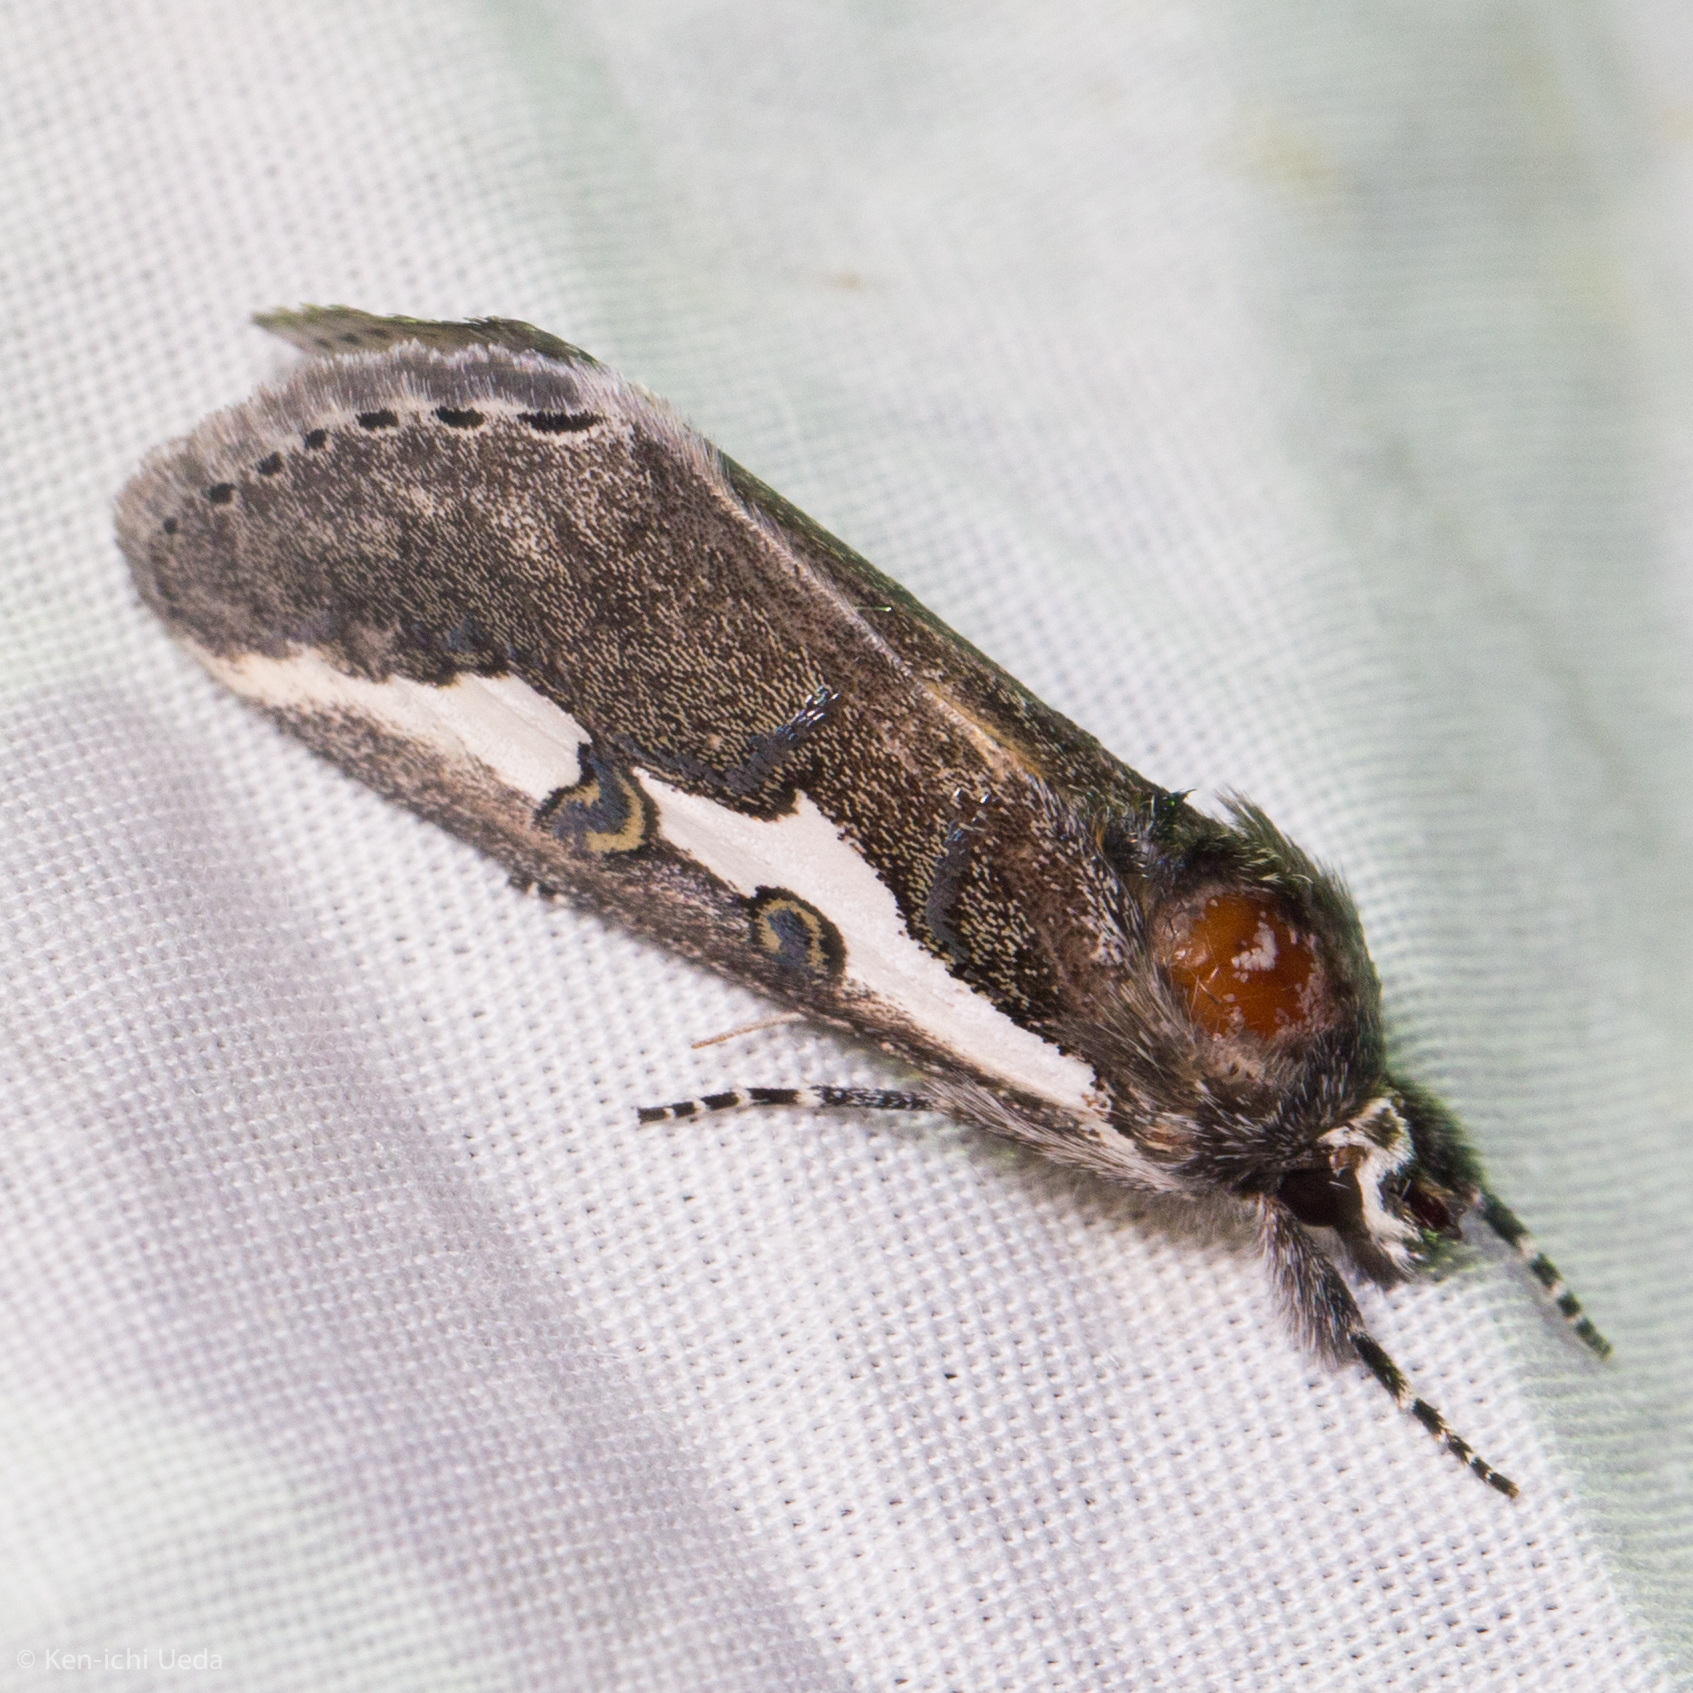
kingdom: Animalia
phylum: Arthropoda
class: Insecta
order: Lepidoptera
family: Noctuidae
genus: Euscirrhopterus
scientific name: Euscirrhopterus gloveri
